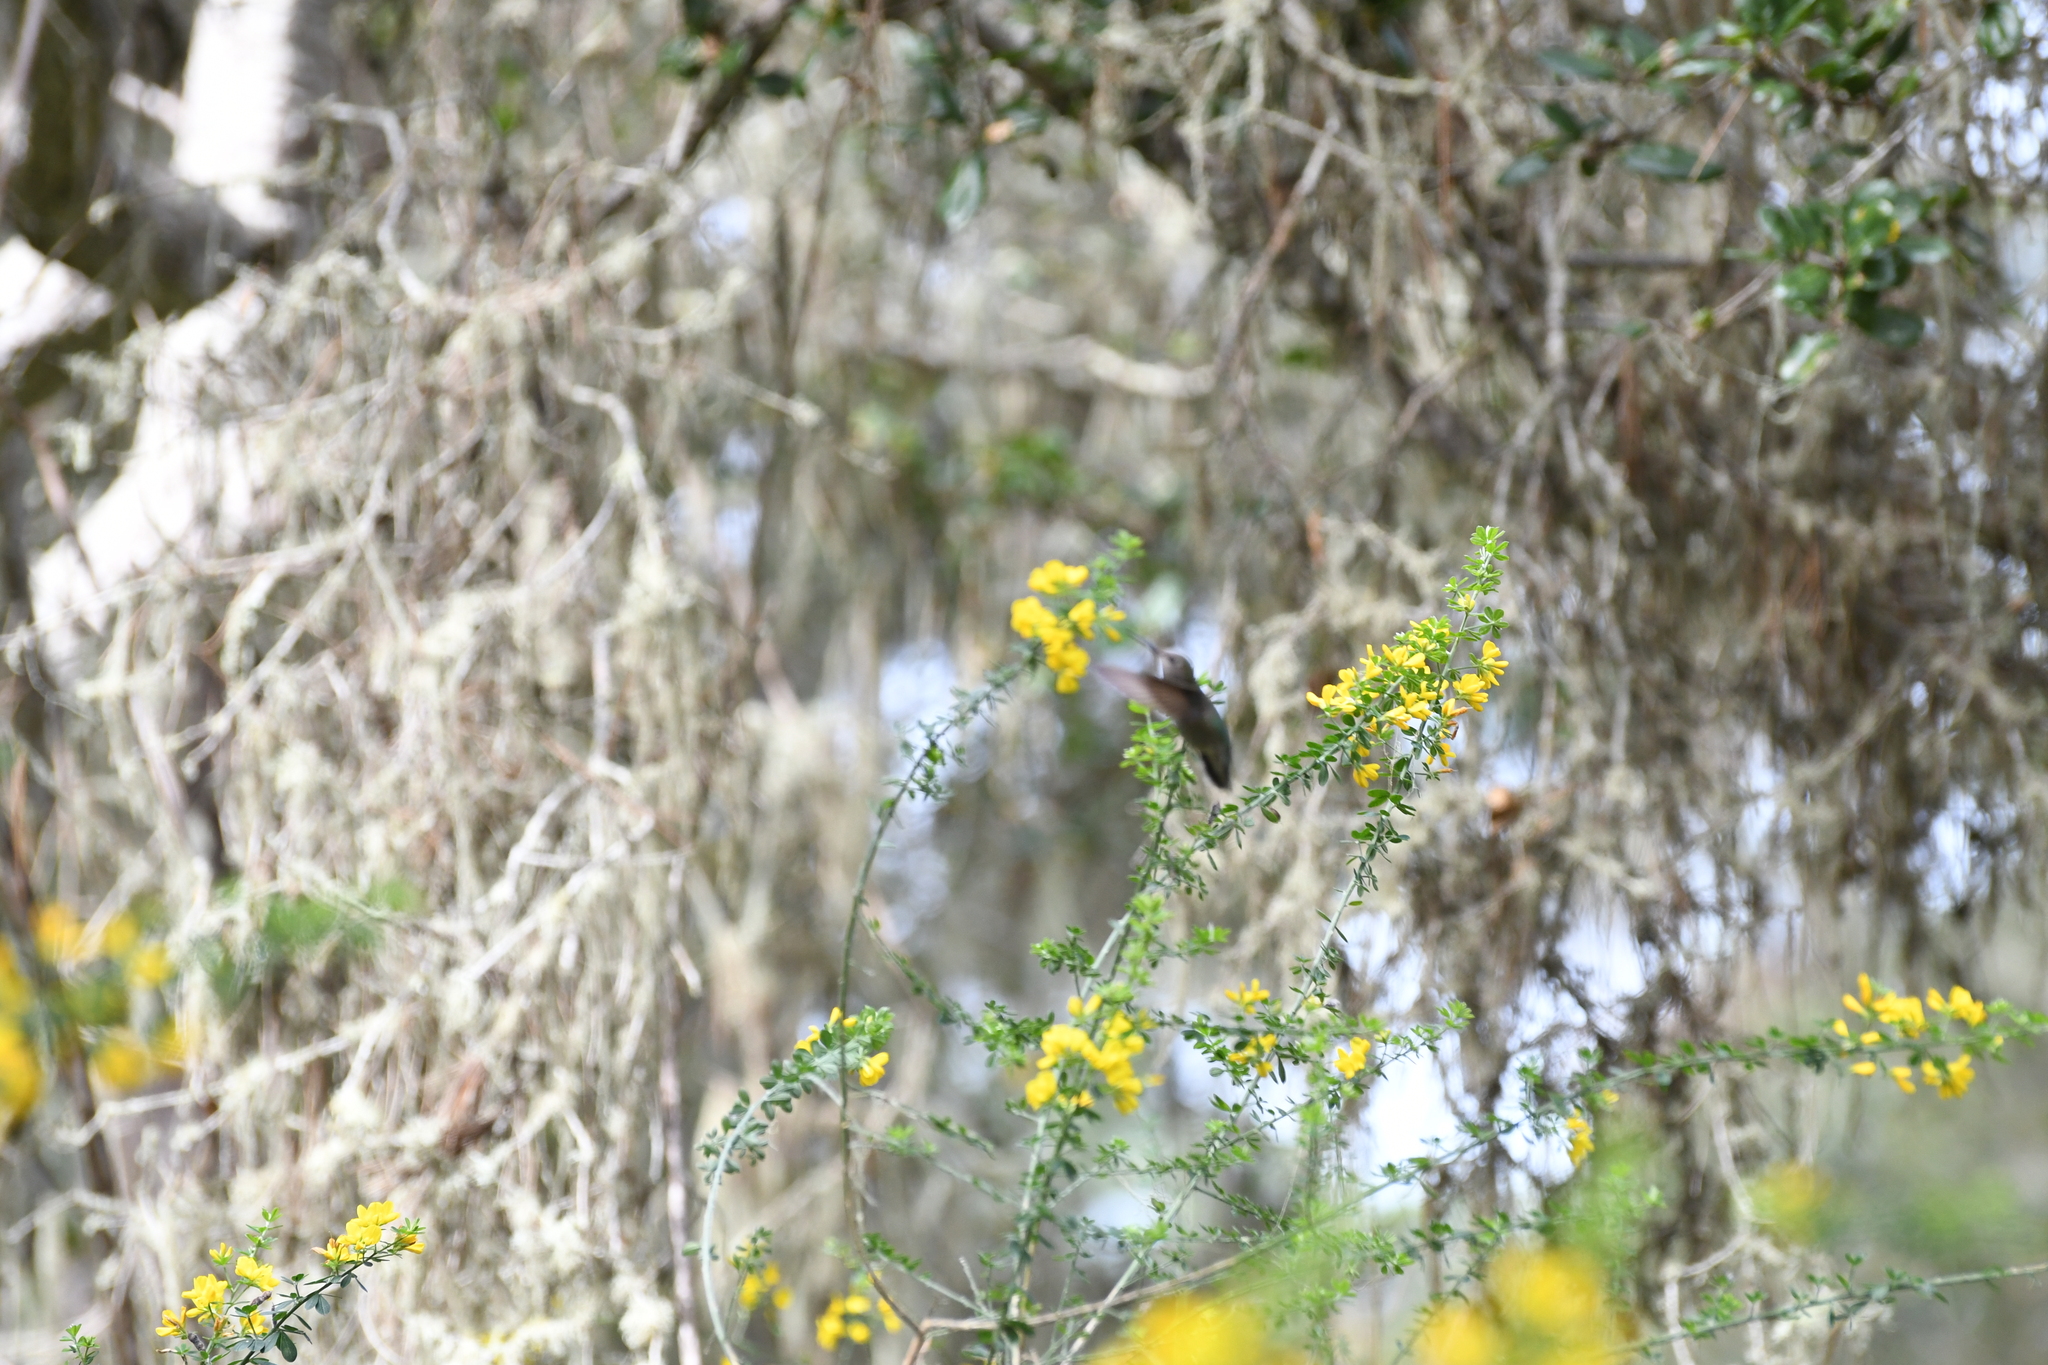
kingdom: Animalia
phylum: Chordata
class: Aves
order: Apodiformes
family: Trochilidae
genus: Calypte
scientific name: Calypte anna
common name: Anna's hummingbird
